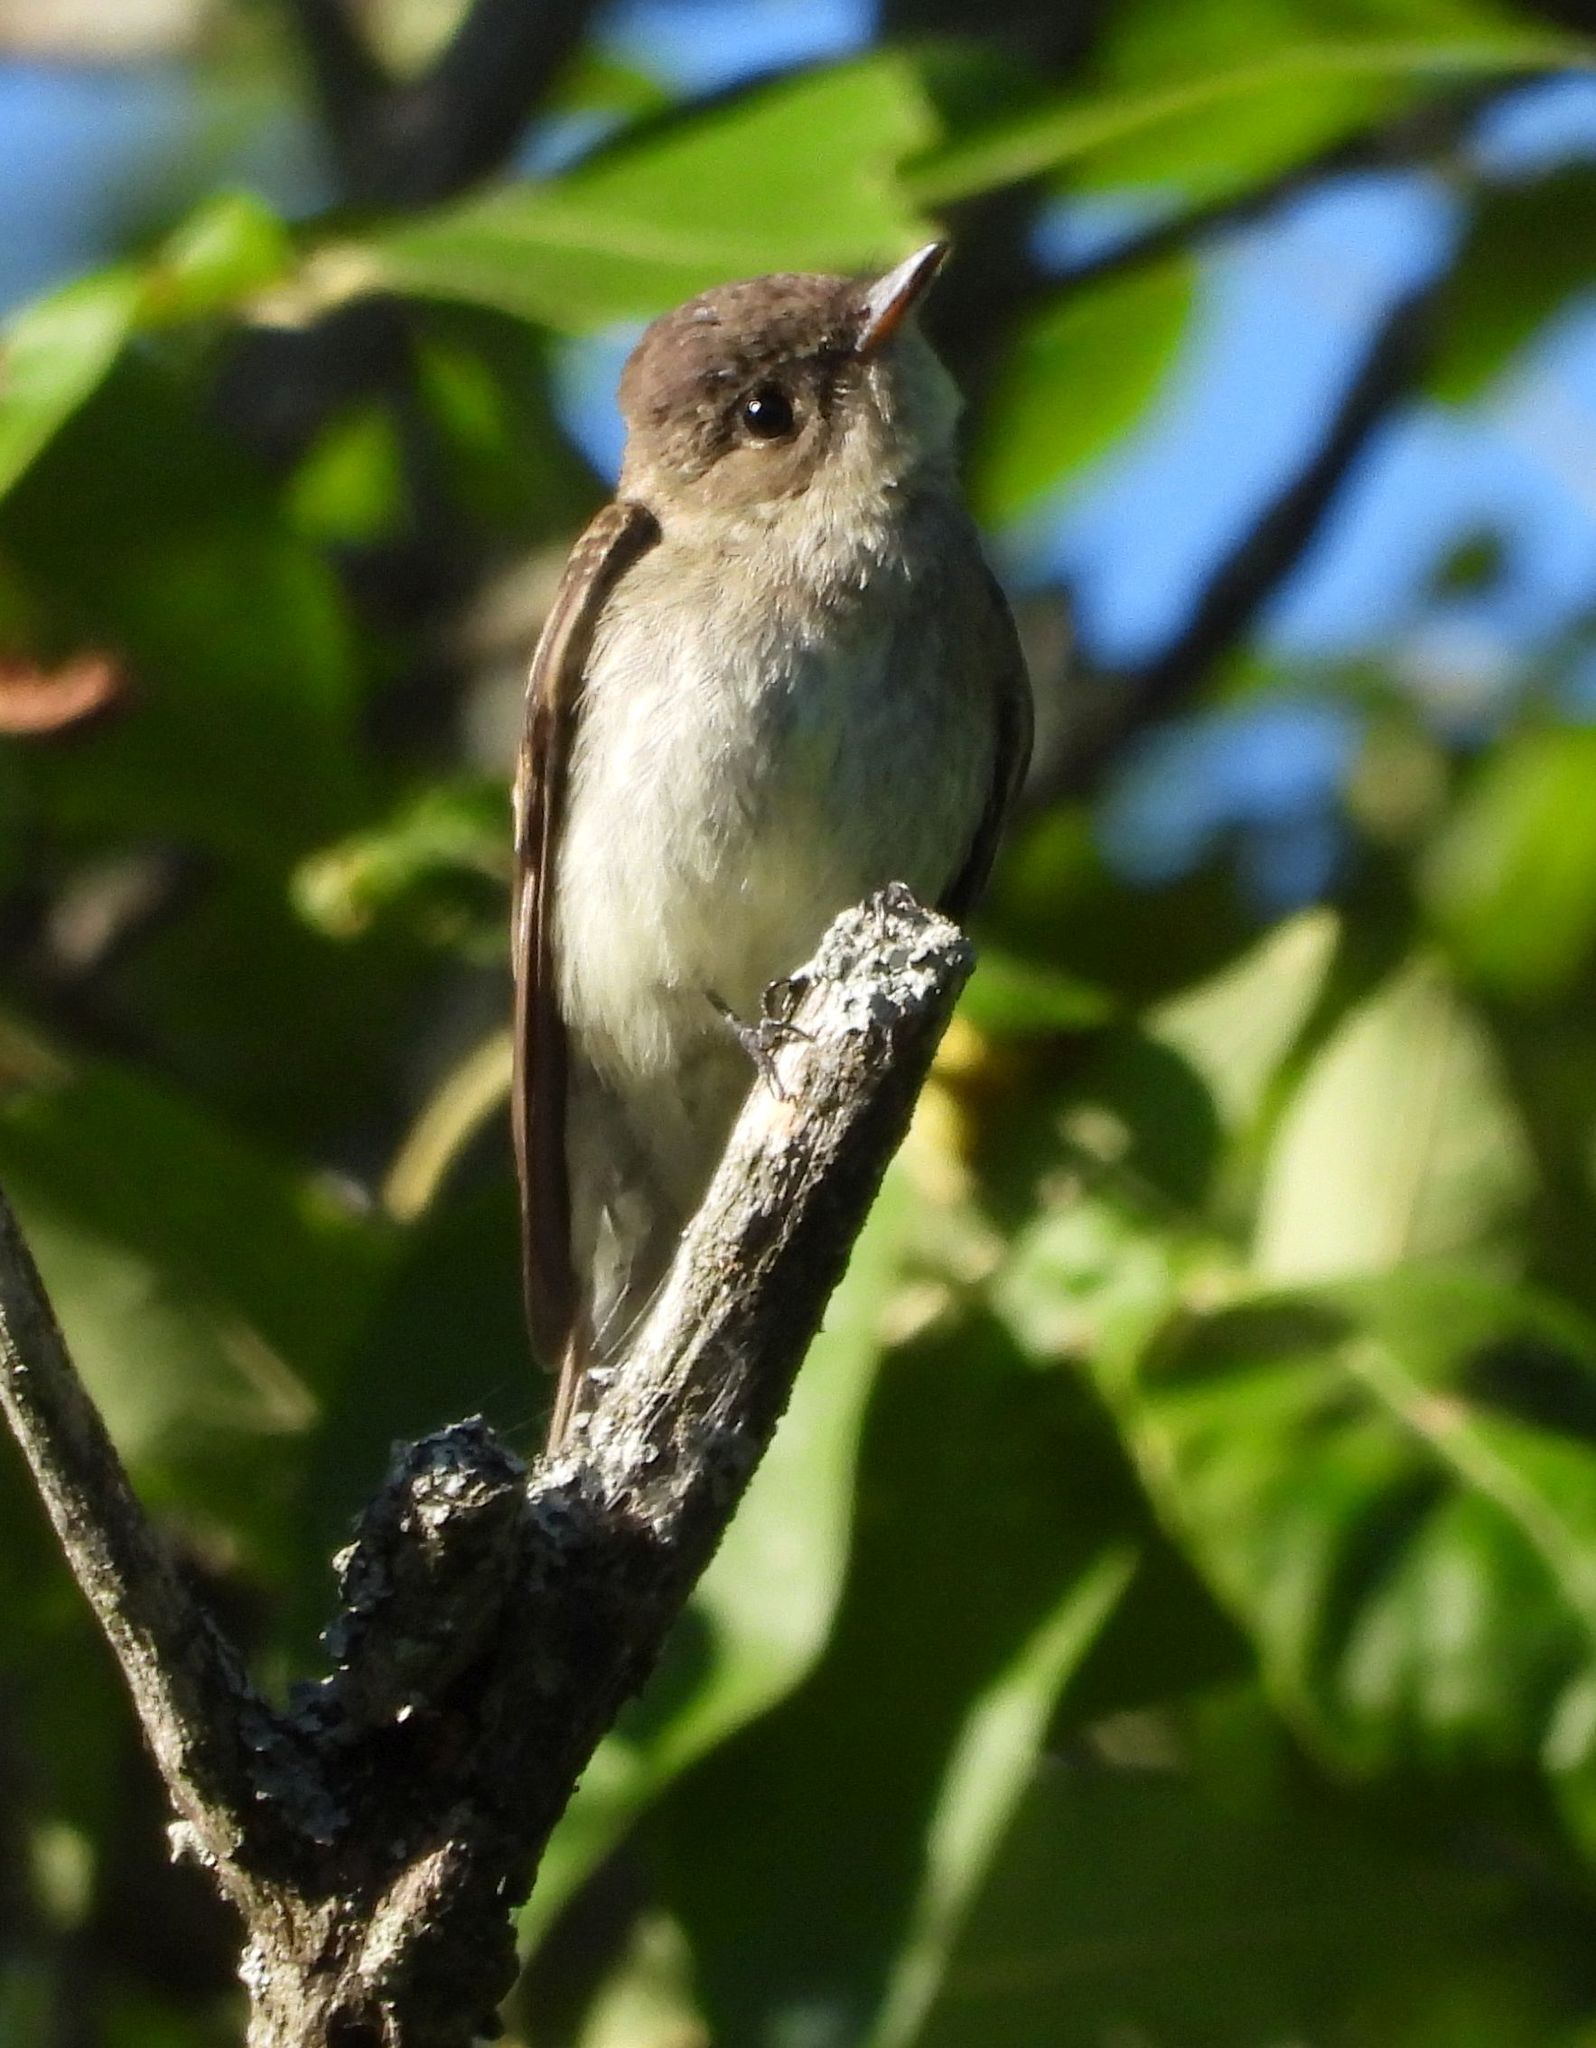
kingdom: Animalia
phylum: Chordata
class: Aves
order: Passeriformes
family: Tyrannidae
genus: Contopus
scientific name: Contopus virens
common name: Eastern wood-pewee
